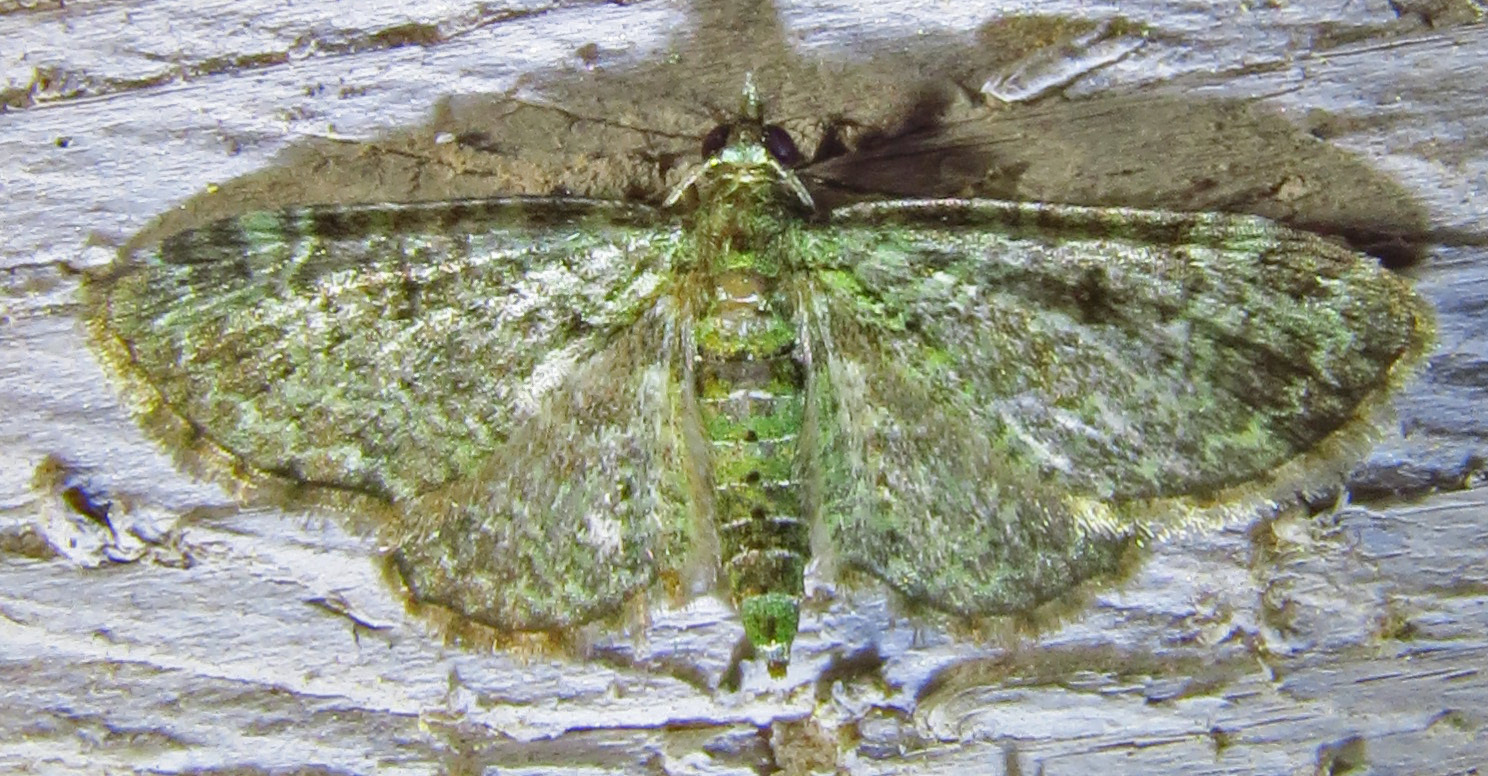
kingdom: Animalia
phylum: Arthropoda
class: Insecta
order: Lepidoptera
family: Geometridae
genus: Pasiphila
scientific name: Pasiphila rectangulata
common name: Green pug
